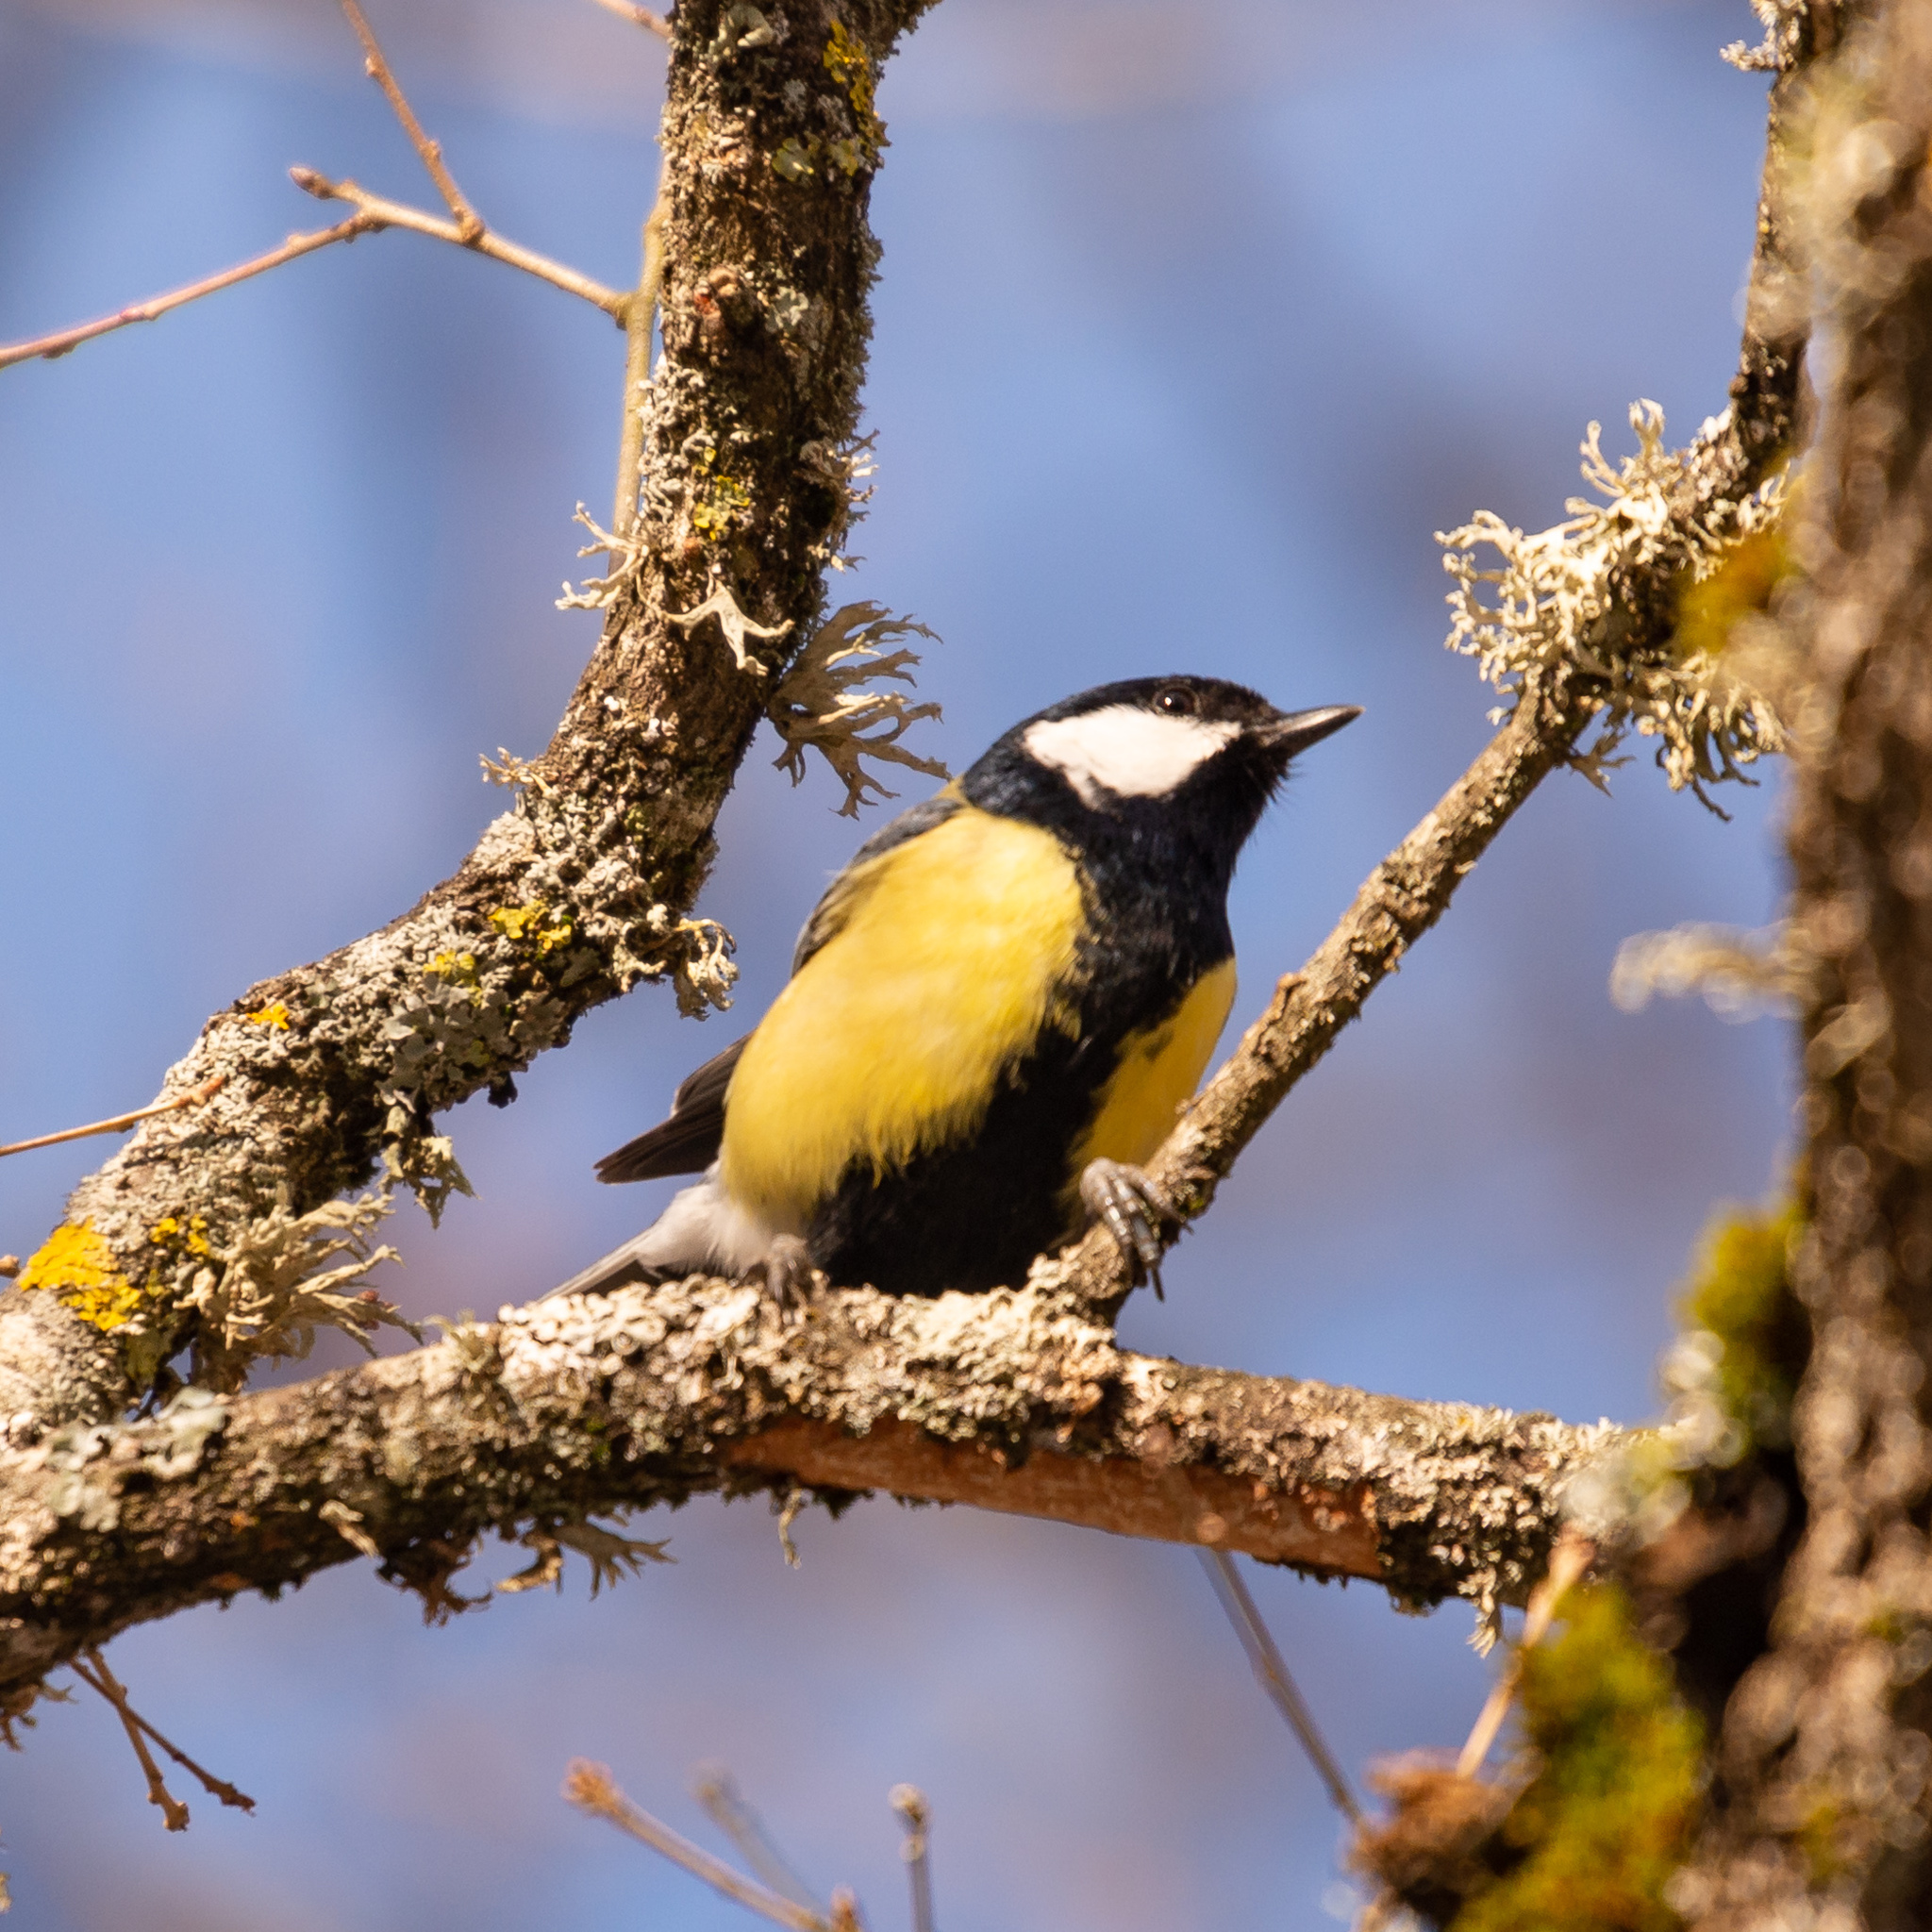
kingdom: Animalia
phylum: Chordata
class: Aves
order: Passeriformes
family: Paridae
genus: Parus
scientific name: Parus major
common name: Great tit
